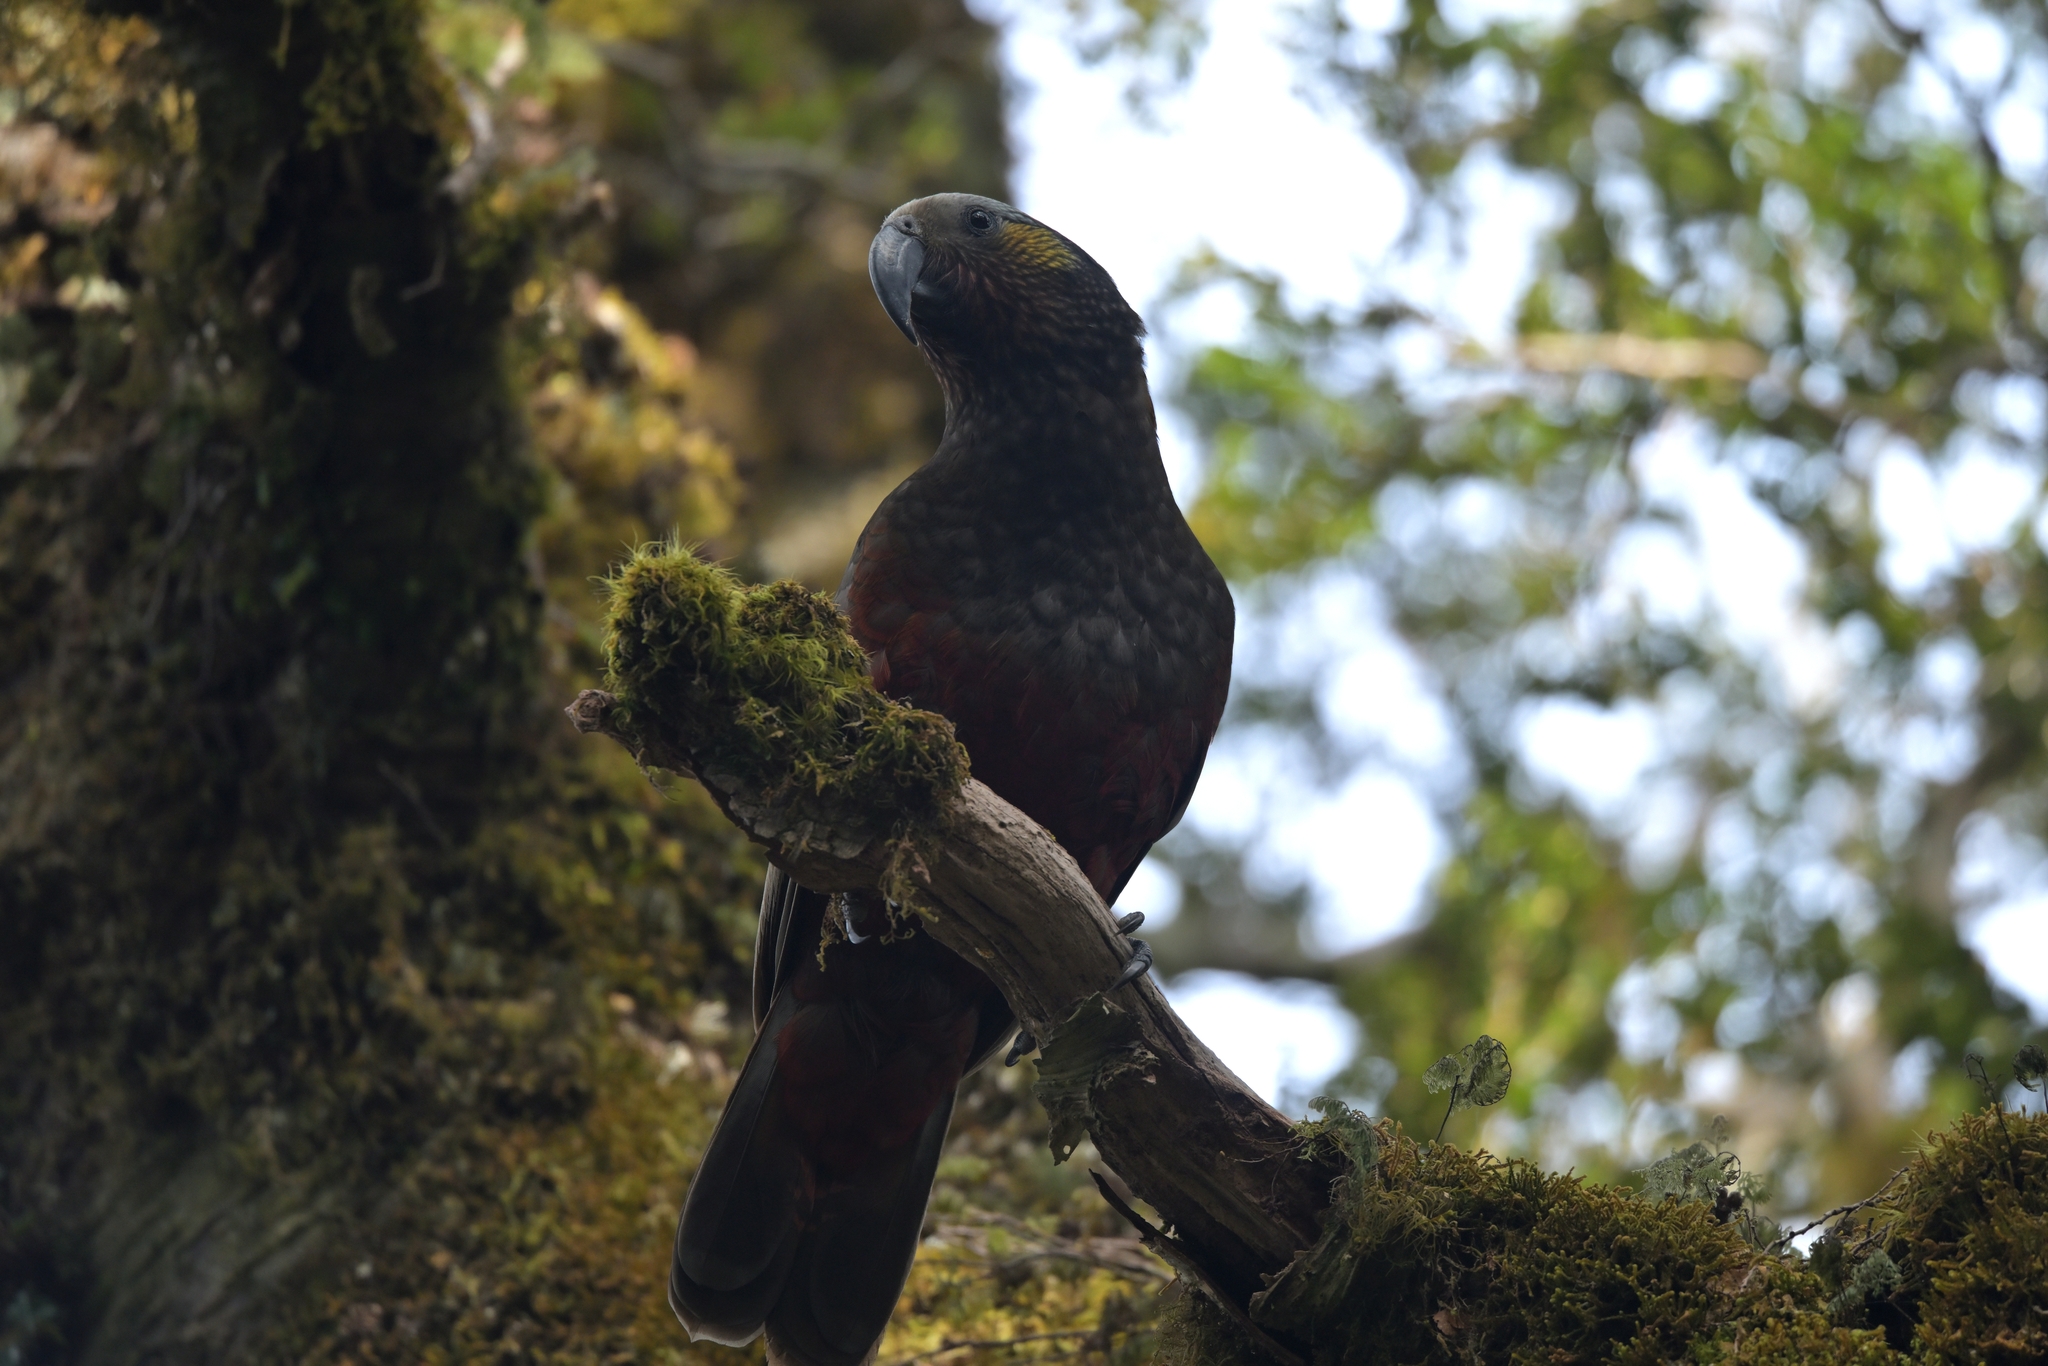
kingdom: Animalia
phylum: Chordata
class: Aves
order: Psittaciformes
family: Psittacidae
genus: Nestor
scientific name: Nestor meridionalis
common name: New zealand kaka
